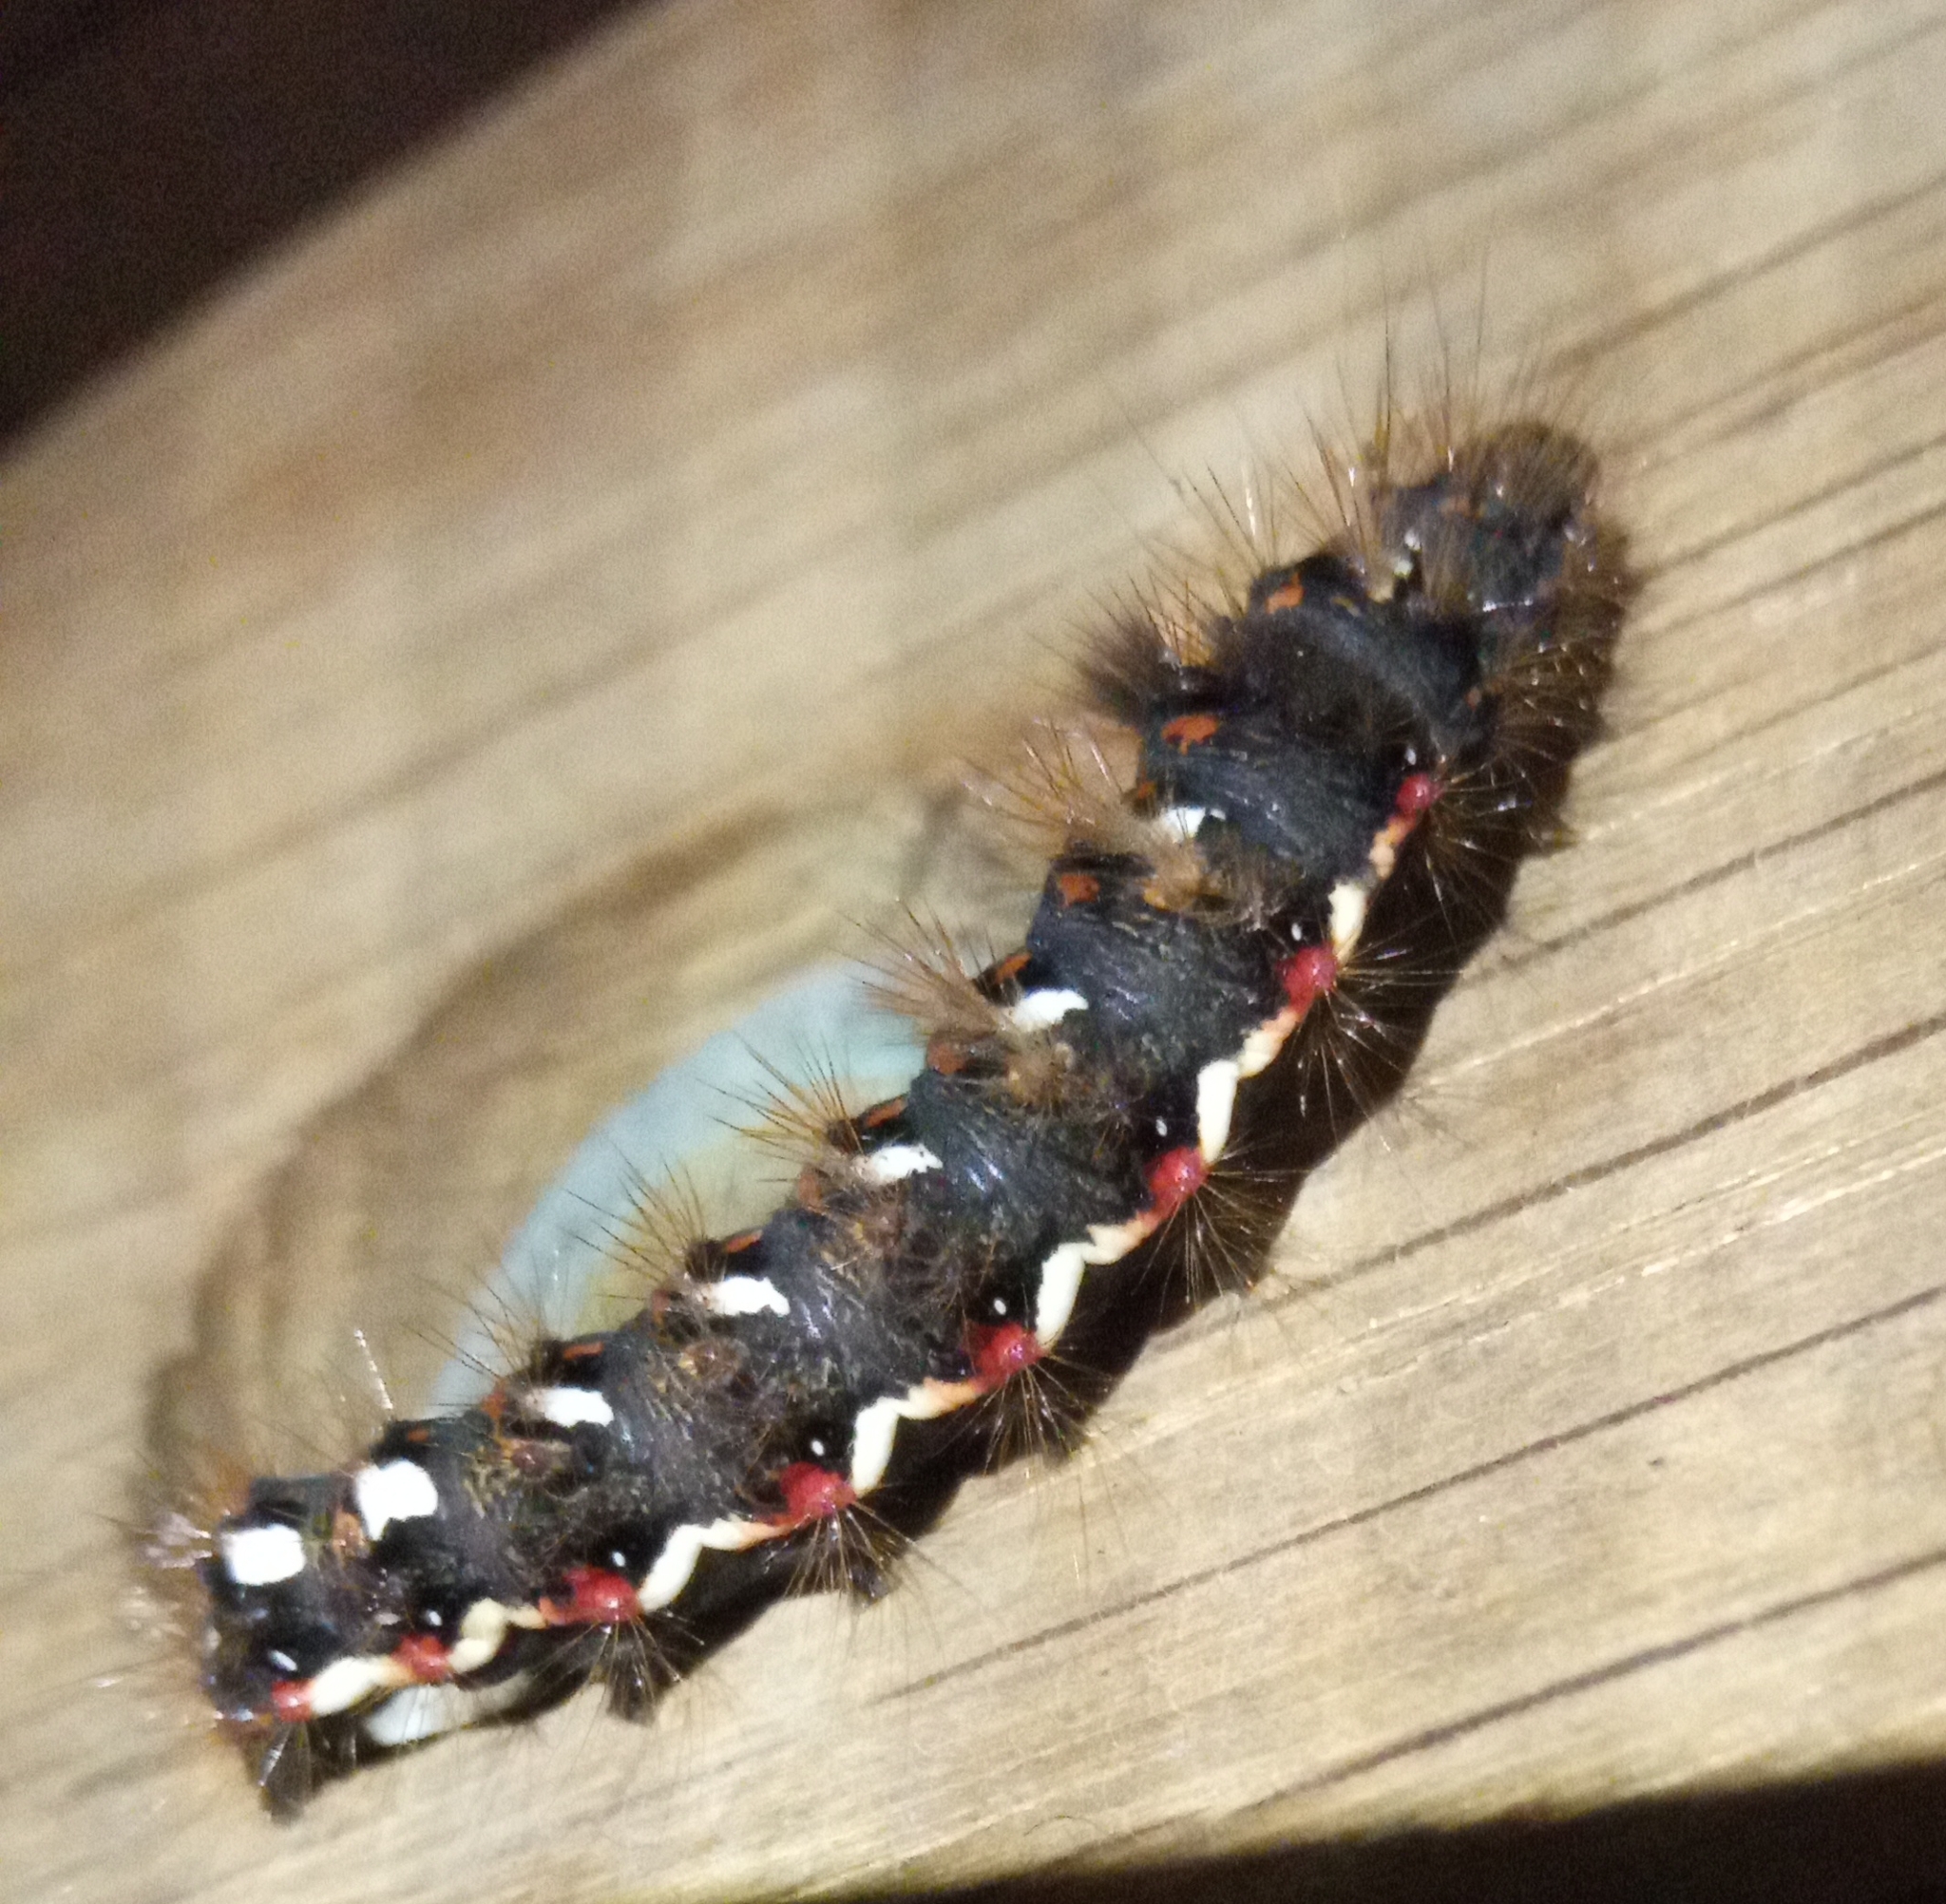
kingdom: Animalia
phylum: Arthropoda
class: Insecta
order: Lepidoptera
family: Noctuidae
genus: Acronicta
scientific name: Acronicta rumicis
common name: Knot grass
